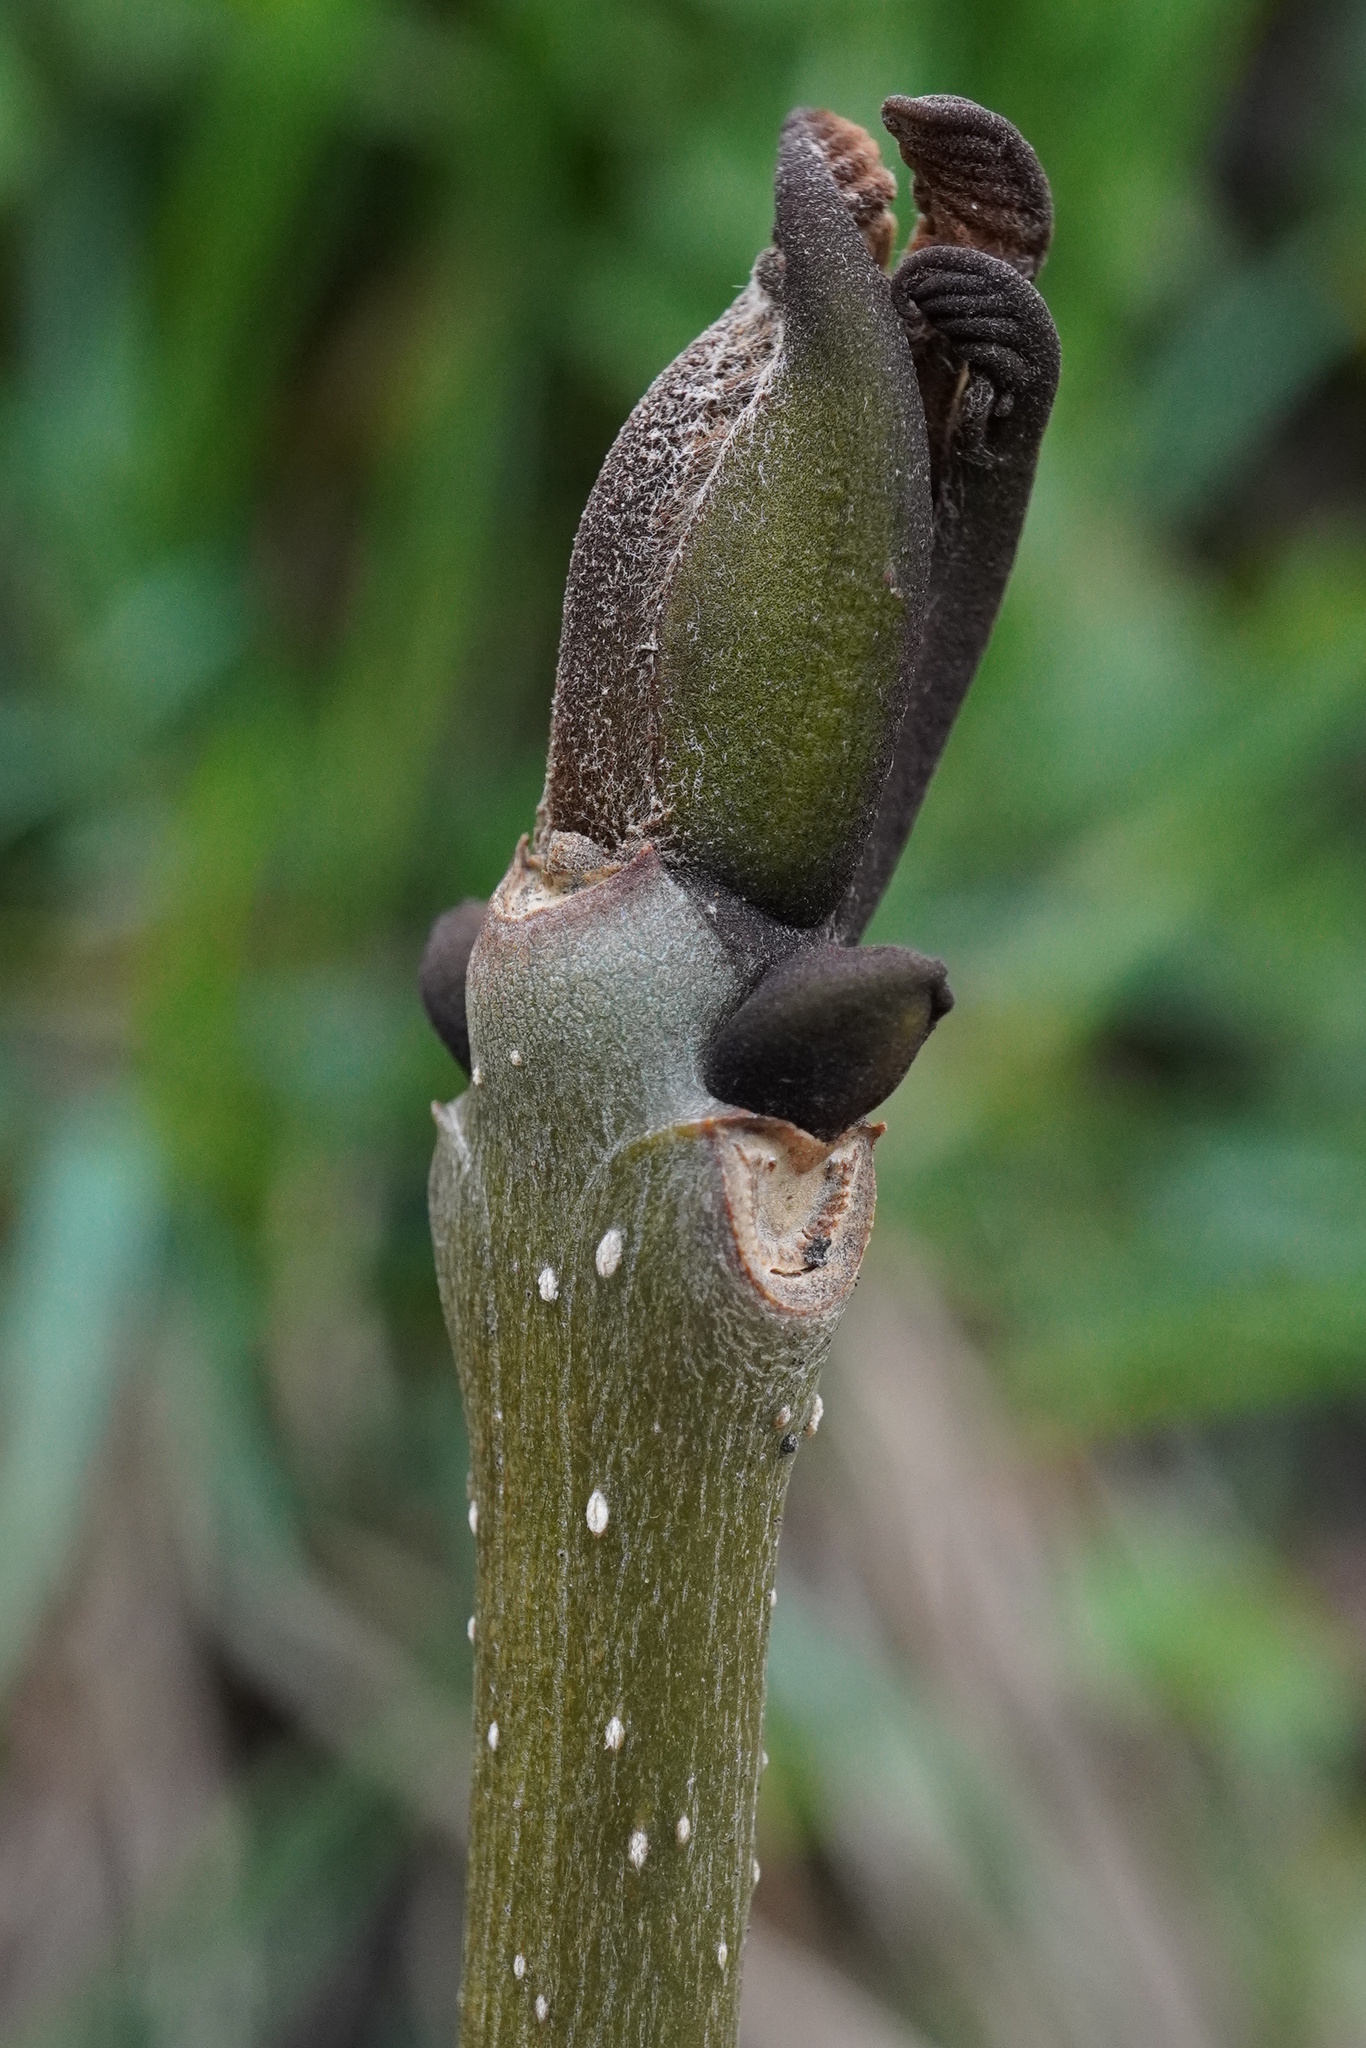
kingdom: Plantae
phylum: Tracheophyta
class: Magnoliopsida
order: Lamiales
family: Oleaceae
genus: Fraxinus
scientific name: Fraxinus excelsior
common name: European ash
